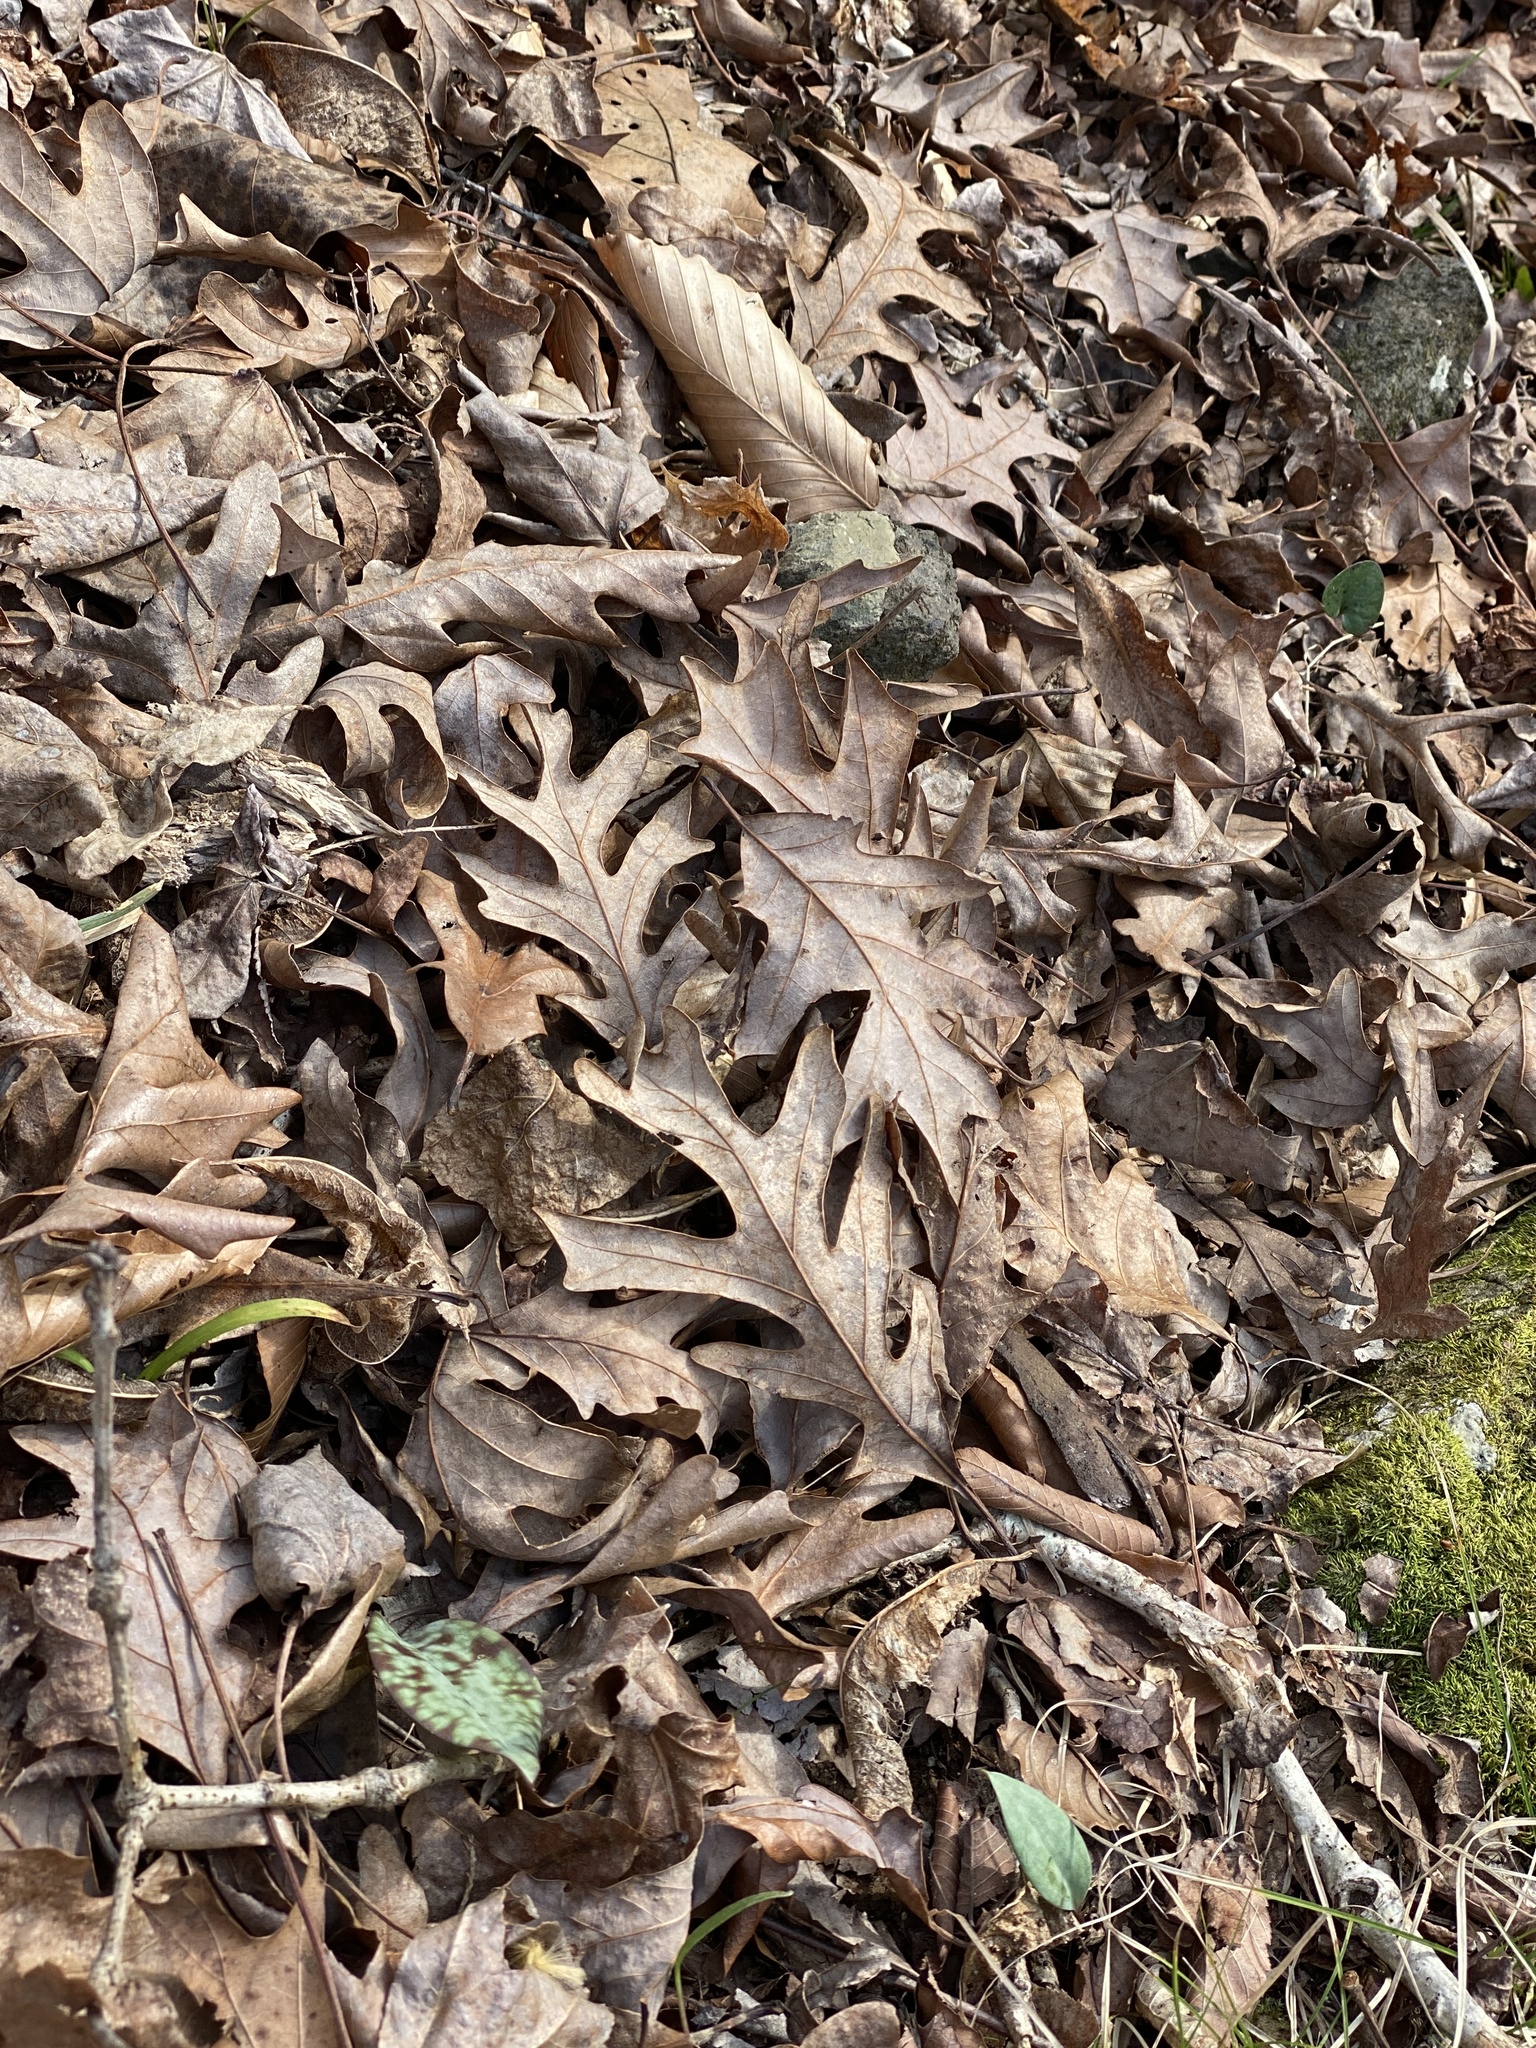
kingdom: Plantae
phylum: Tracheophyta
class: Magnoliopsida
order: Fagales
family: Fagaceae
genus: Quercus
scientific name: Quercus alba
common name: White oak
